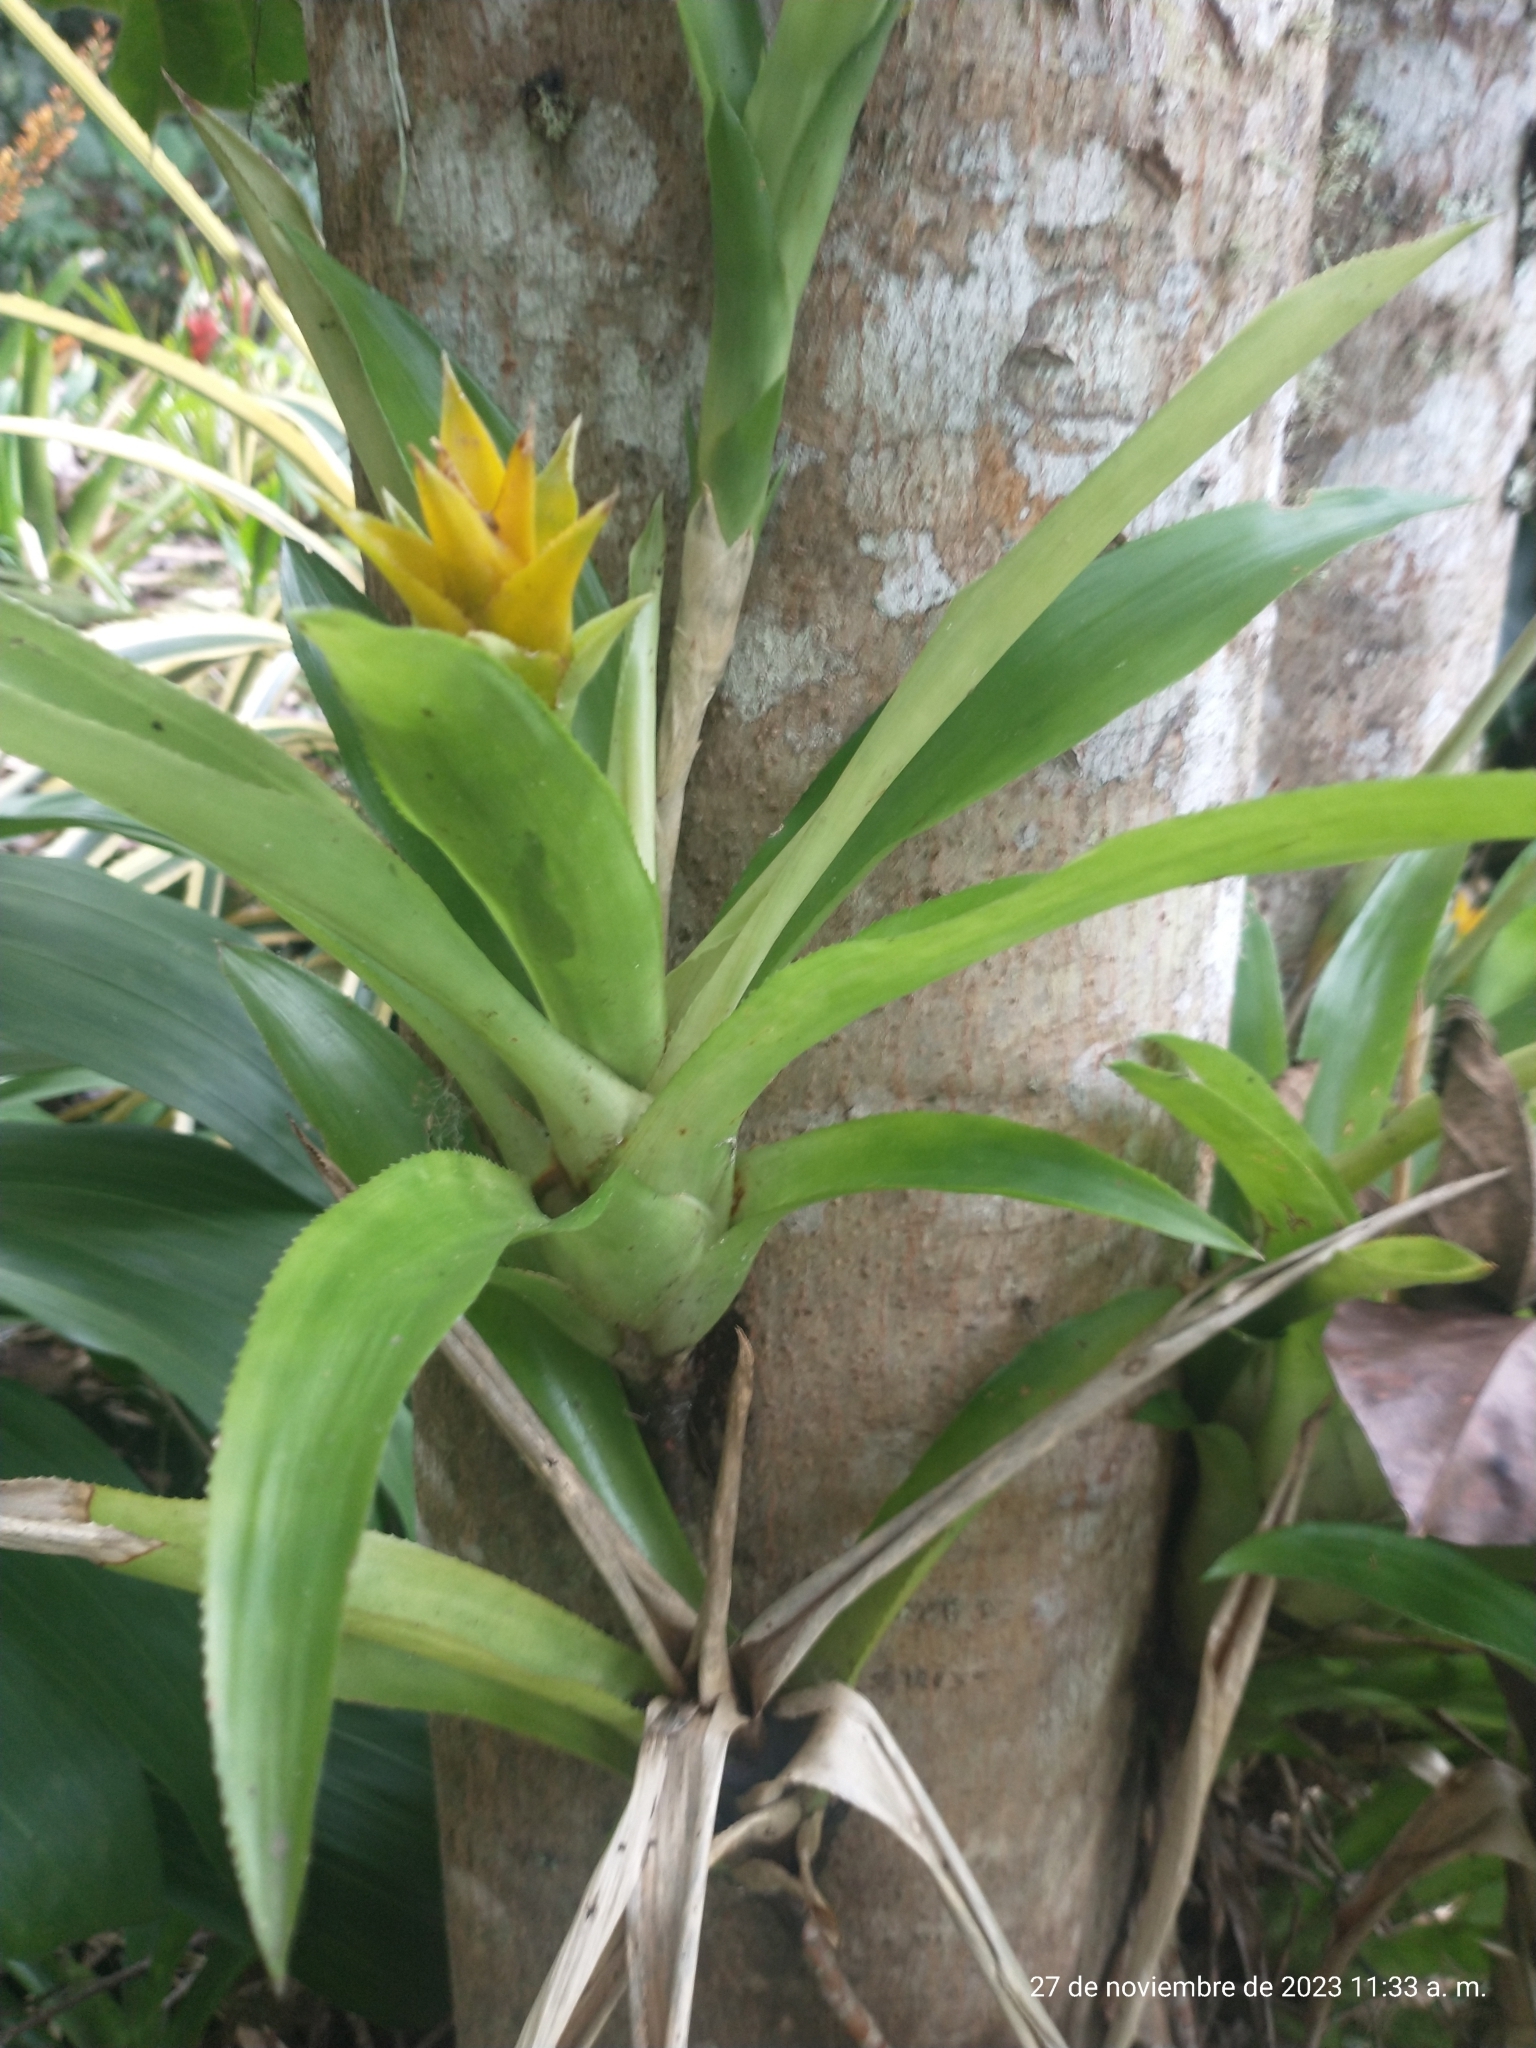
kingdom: Plantae
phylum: Tracheophyta
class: Liliopsida
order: Poales
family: Bromeliaceae
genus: Canistropsis
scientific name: Canistropsis billbergioides
